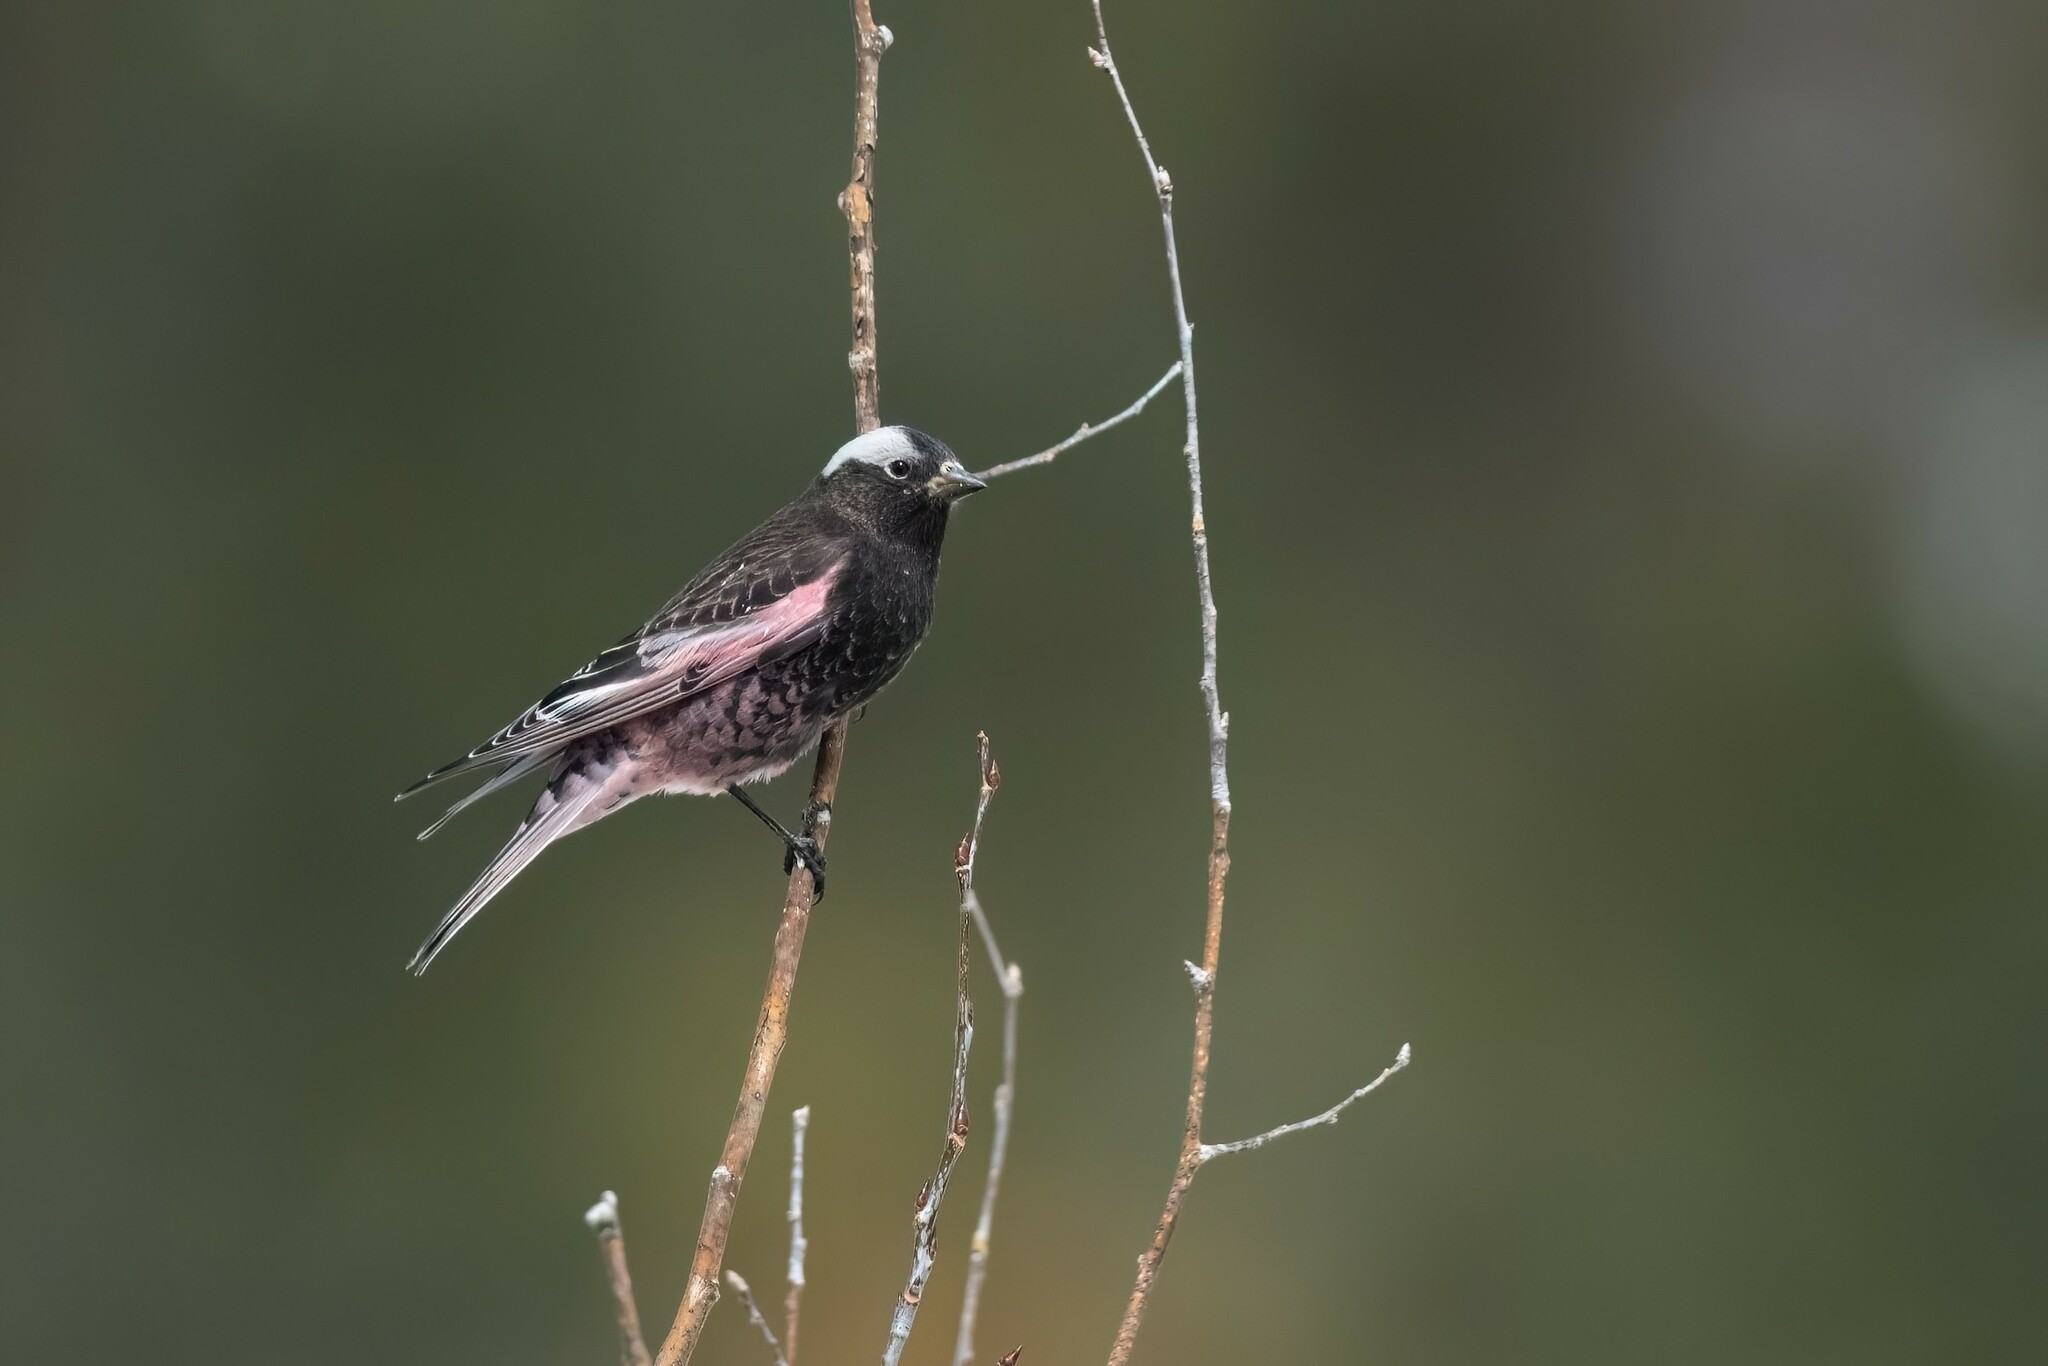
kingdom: Animalia
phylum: Chordata
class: Aves
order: Passeriformes
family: Fringillidae
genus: Leucosticte
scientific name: Leucosticte atrata
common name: Black rosy-finch
